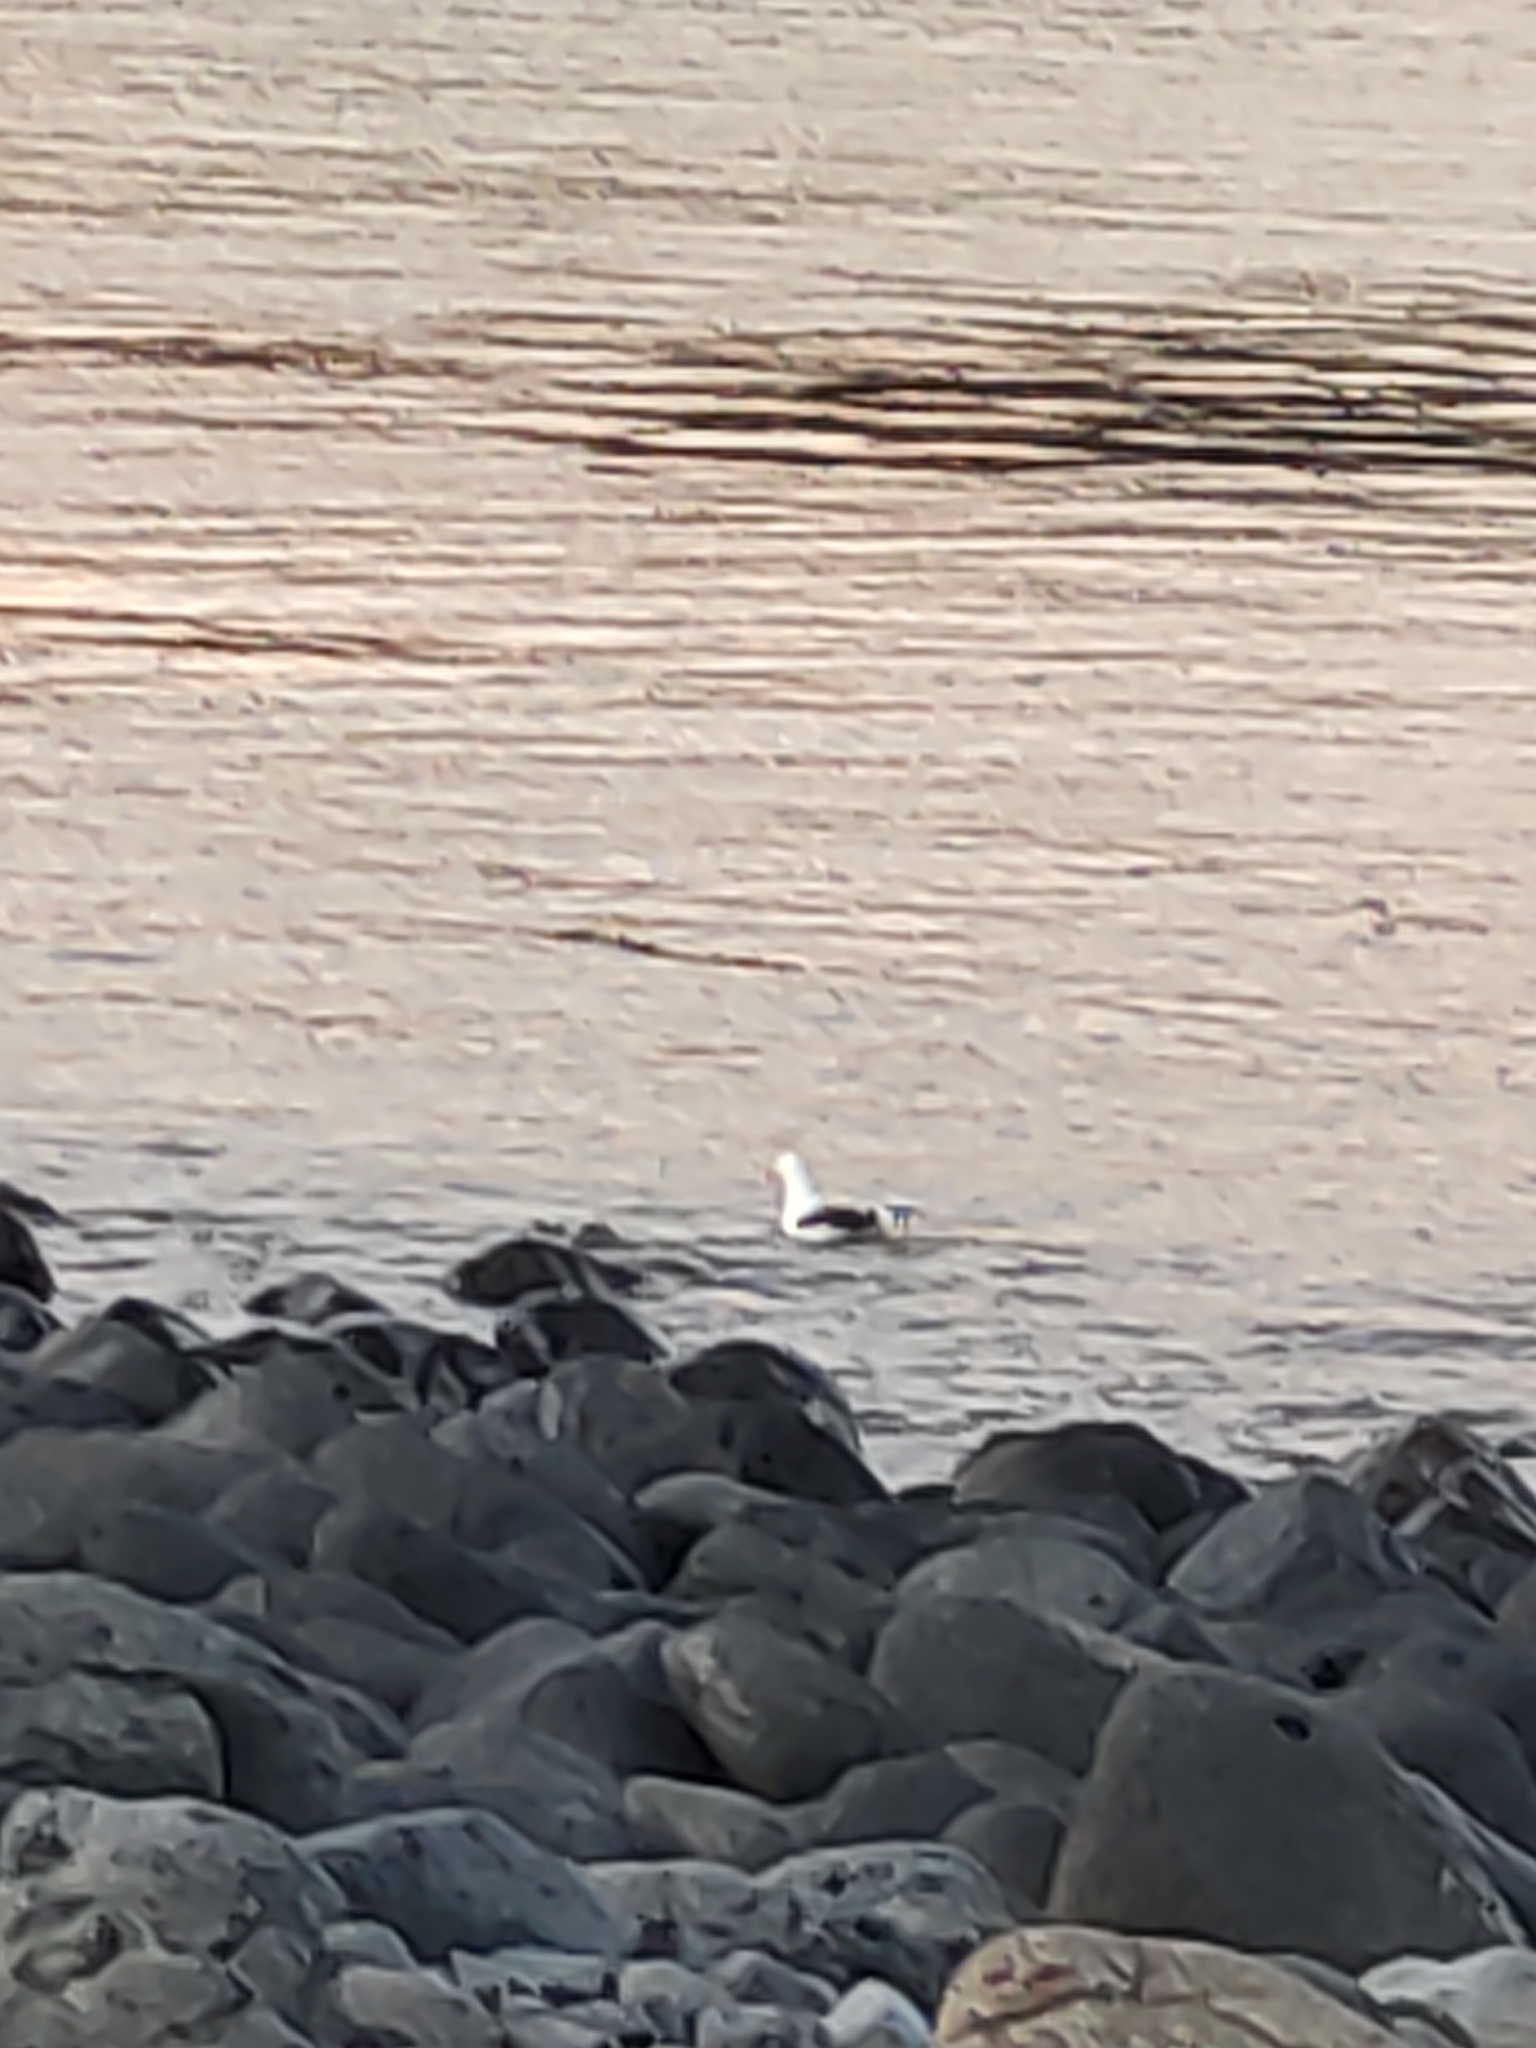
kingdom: Animalia
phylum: Chordata
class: Aves
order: Charadriiformes
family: Laridae
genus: Larus
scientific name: Larus dominicanus
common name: Kelp gull
